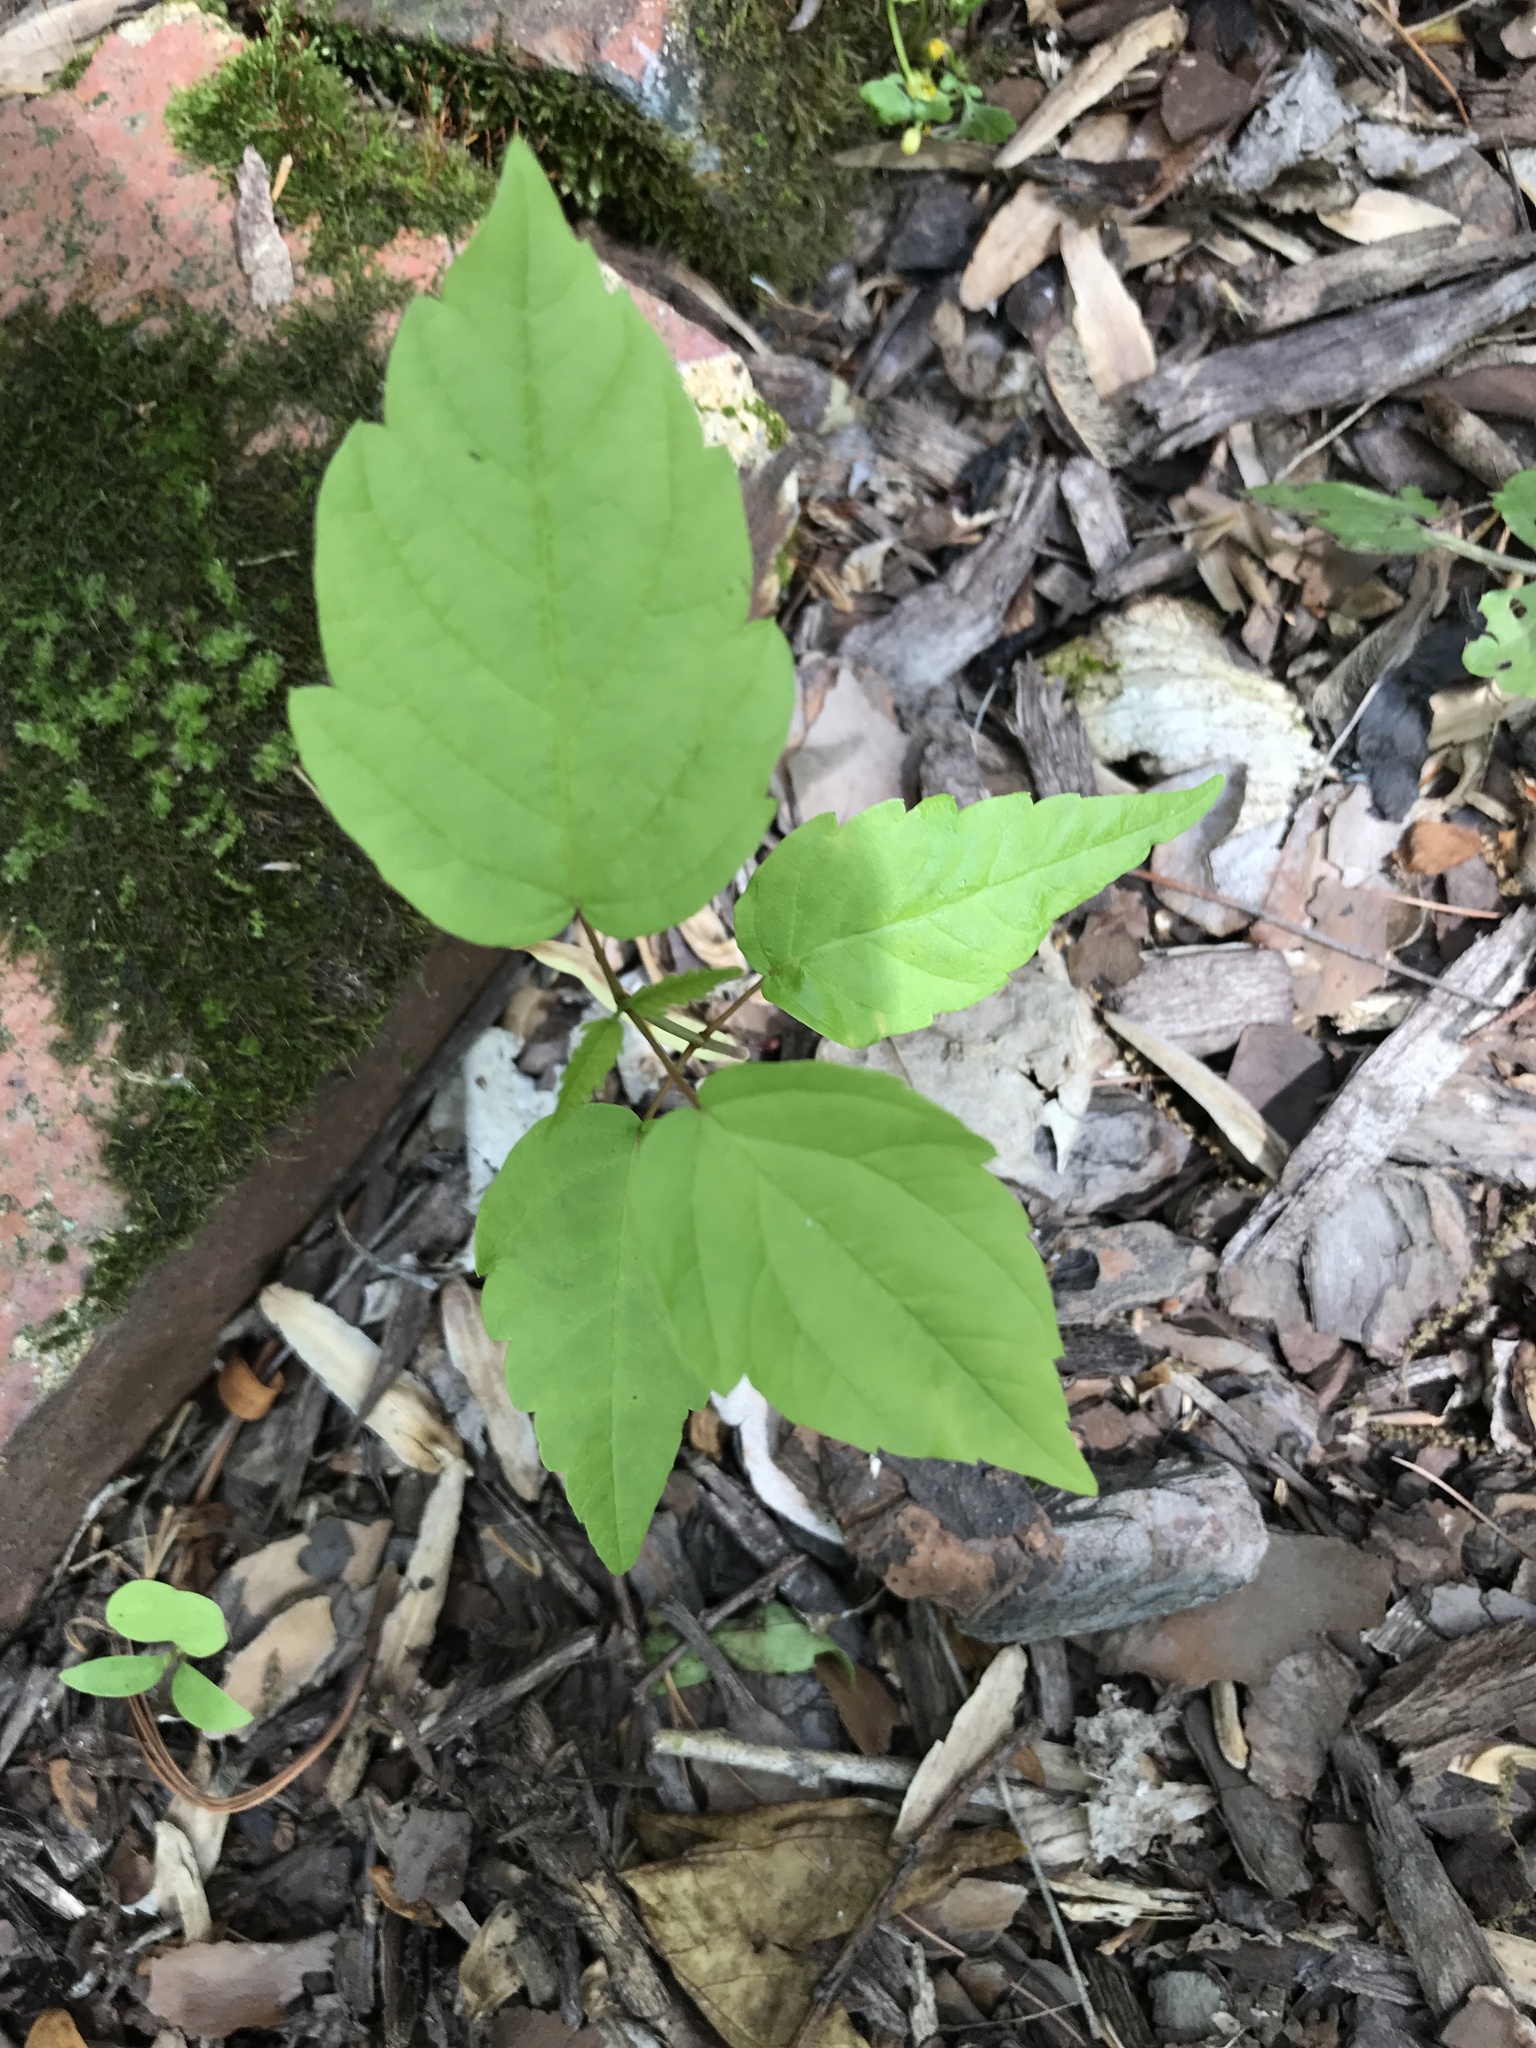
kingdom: Plantae
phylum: Tracheophyta
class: Magnoliopsida
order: Sapindales
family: Sapindaceae
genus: Acer
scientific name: Acer negundo
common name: Ashleaf maple
